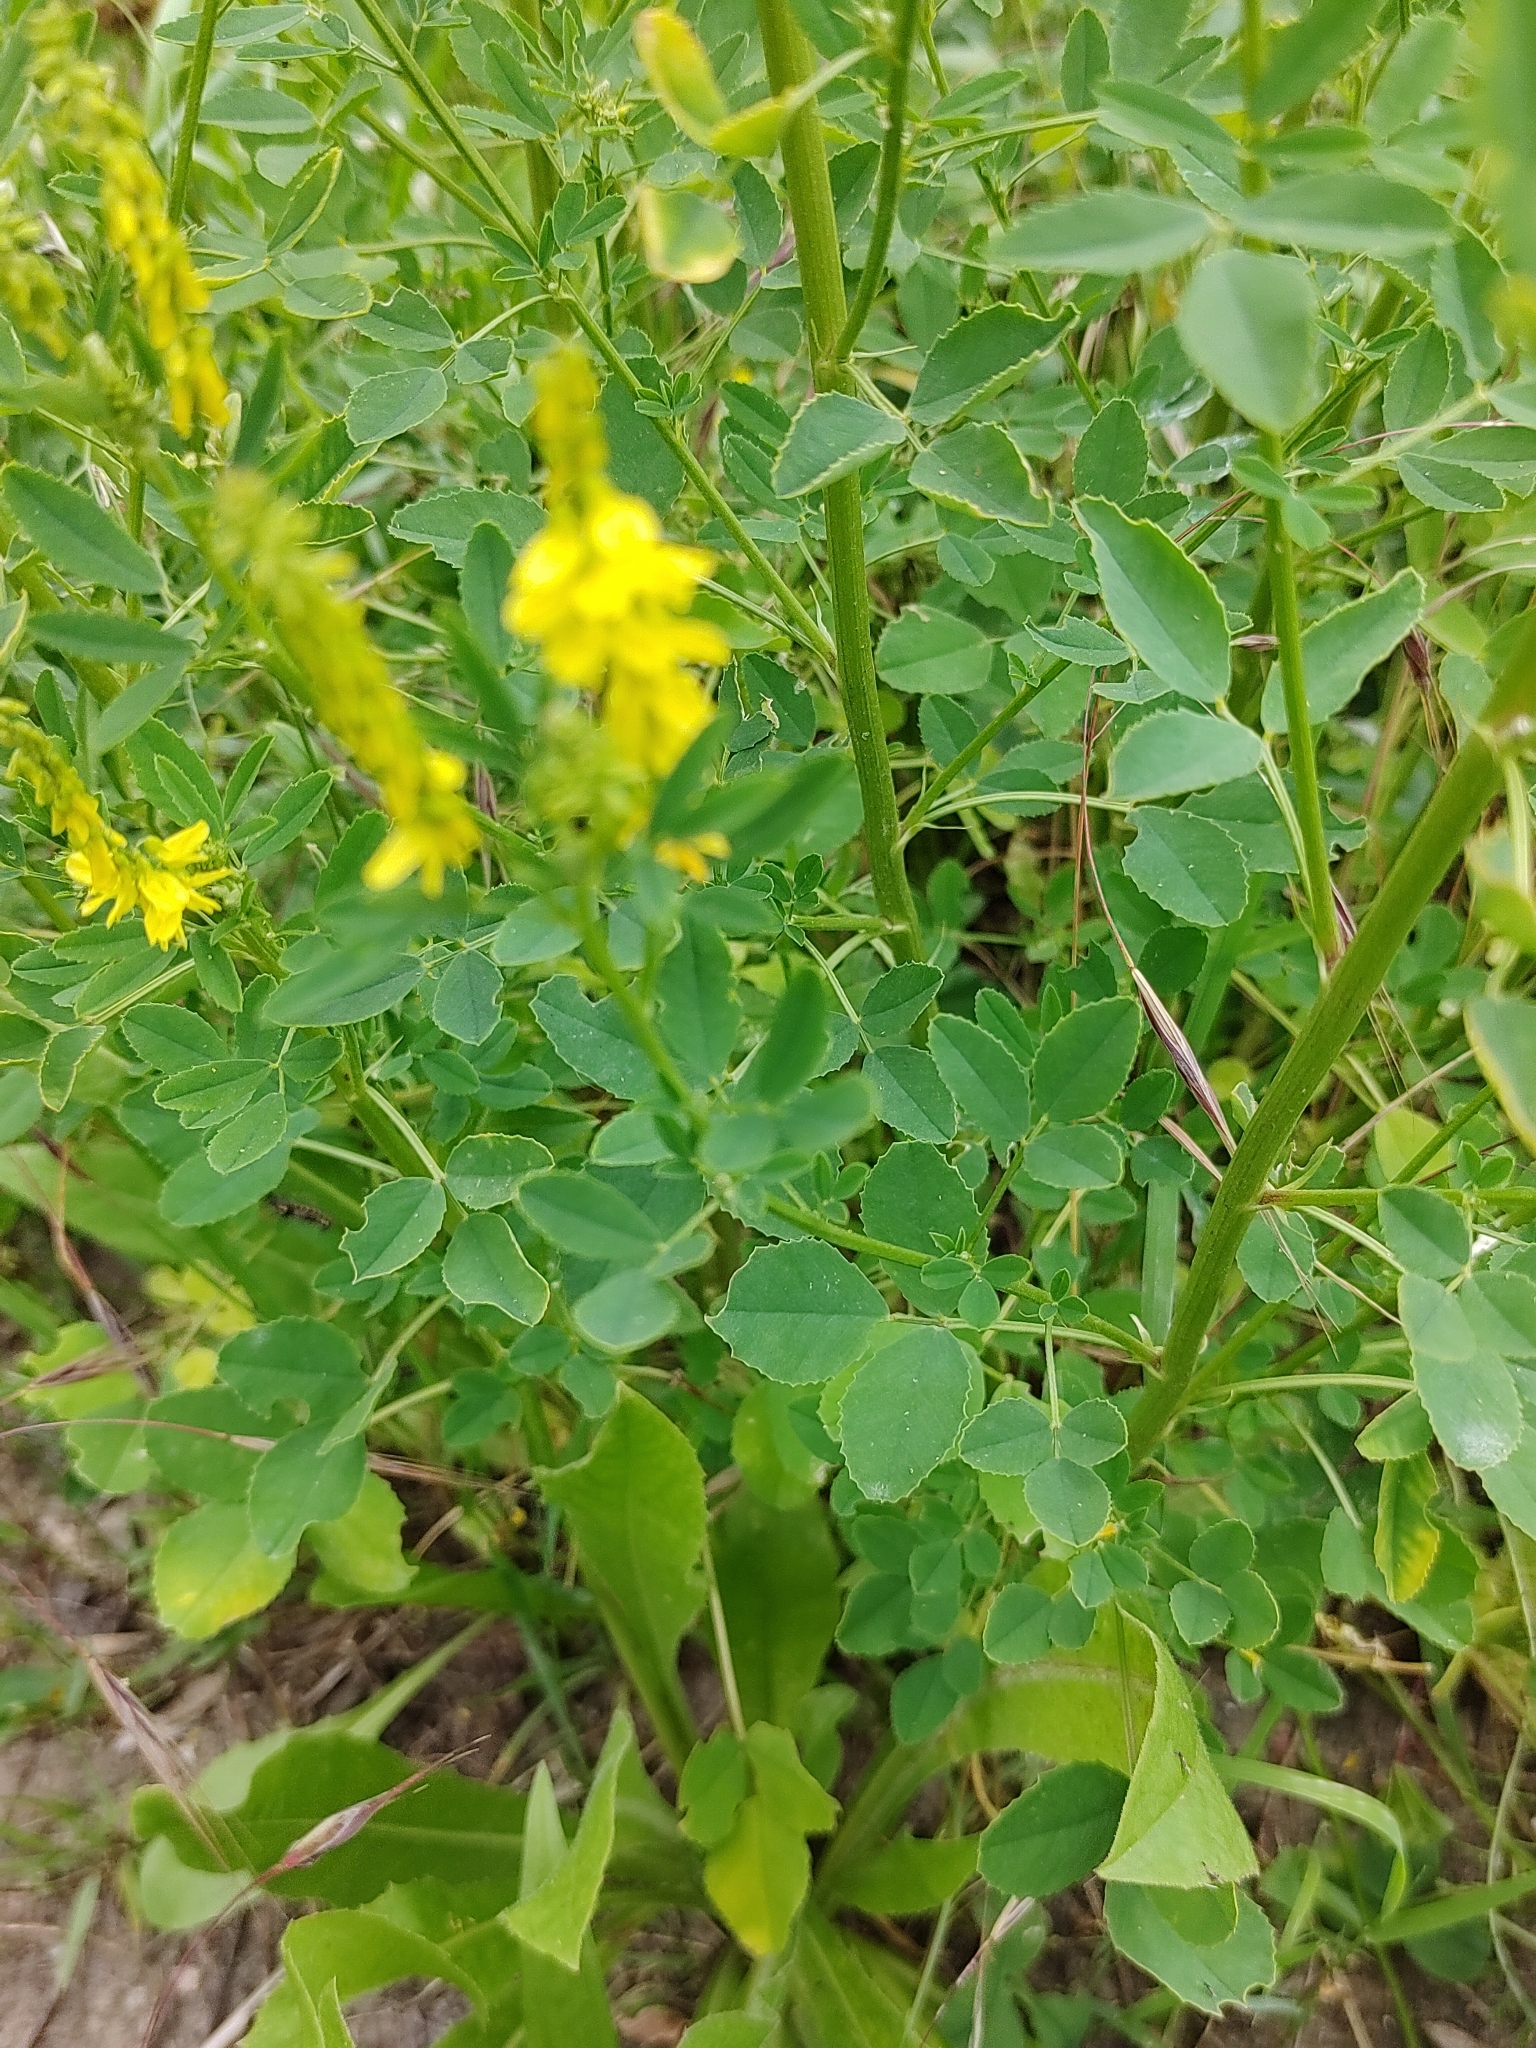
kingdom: Plantae
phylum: Tracheophyta
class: Magnoliopsida
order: Fabales
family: Fabaceae
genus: Melilotus
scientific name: Melilotus officinalis
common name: Sweetclover
